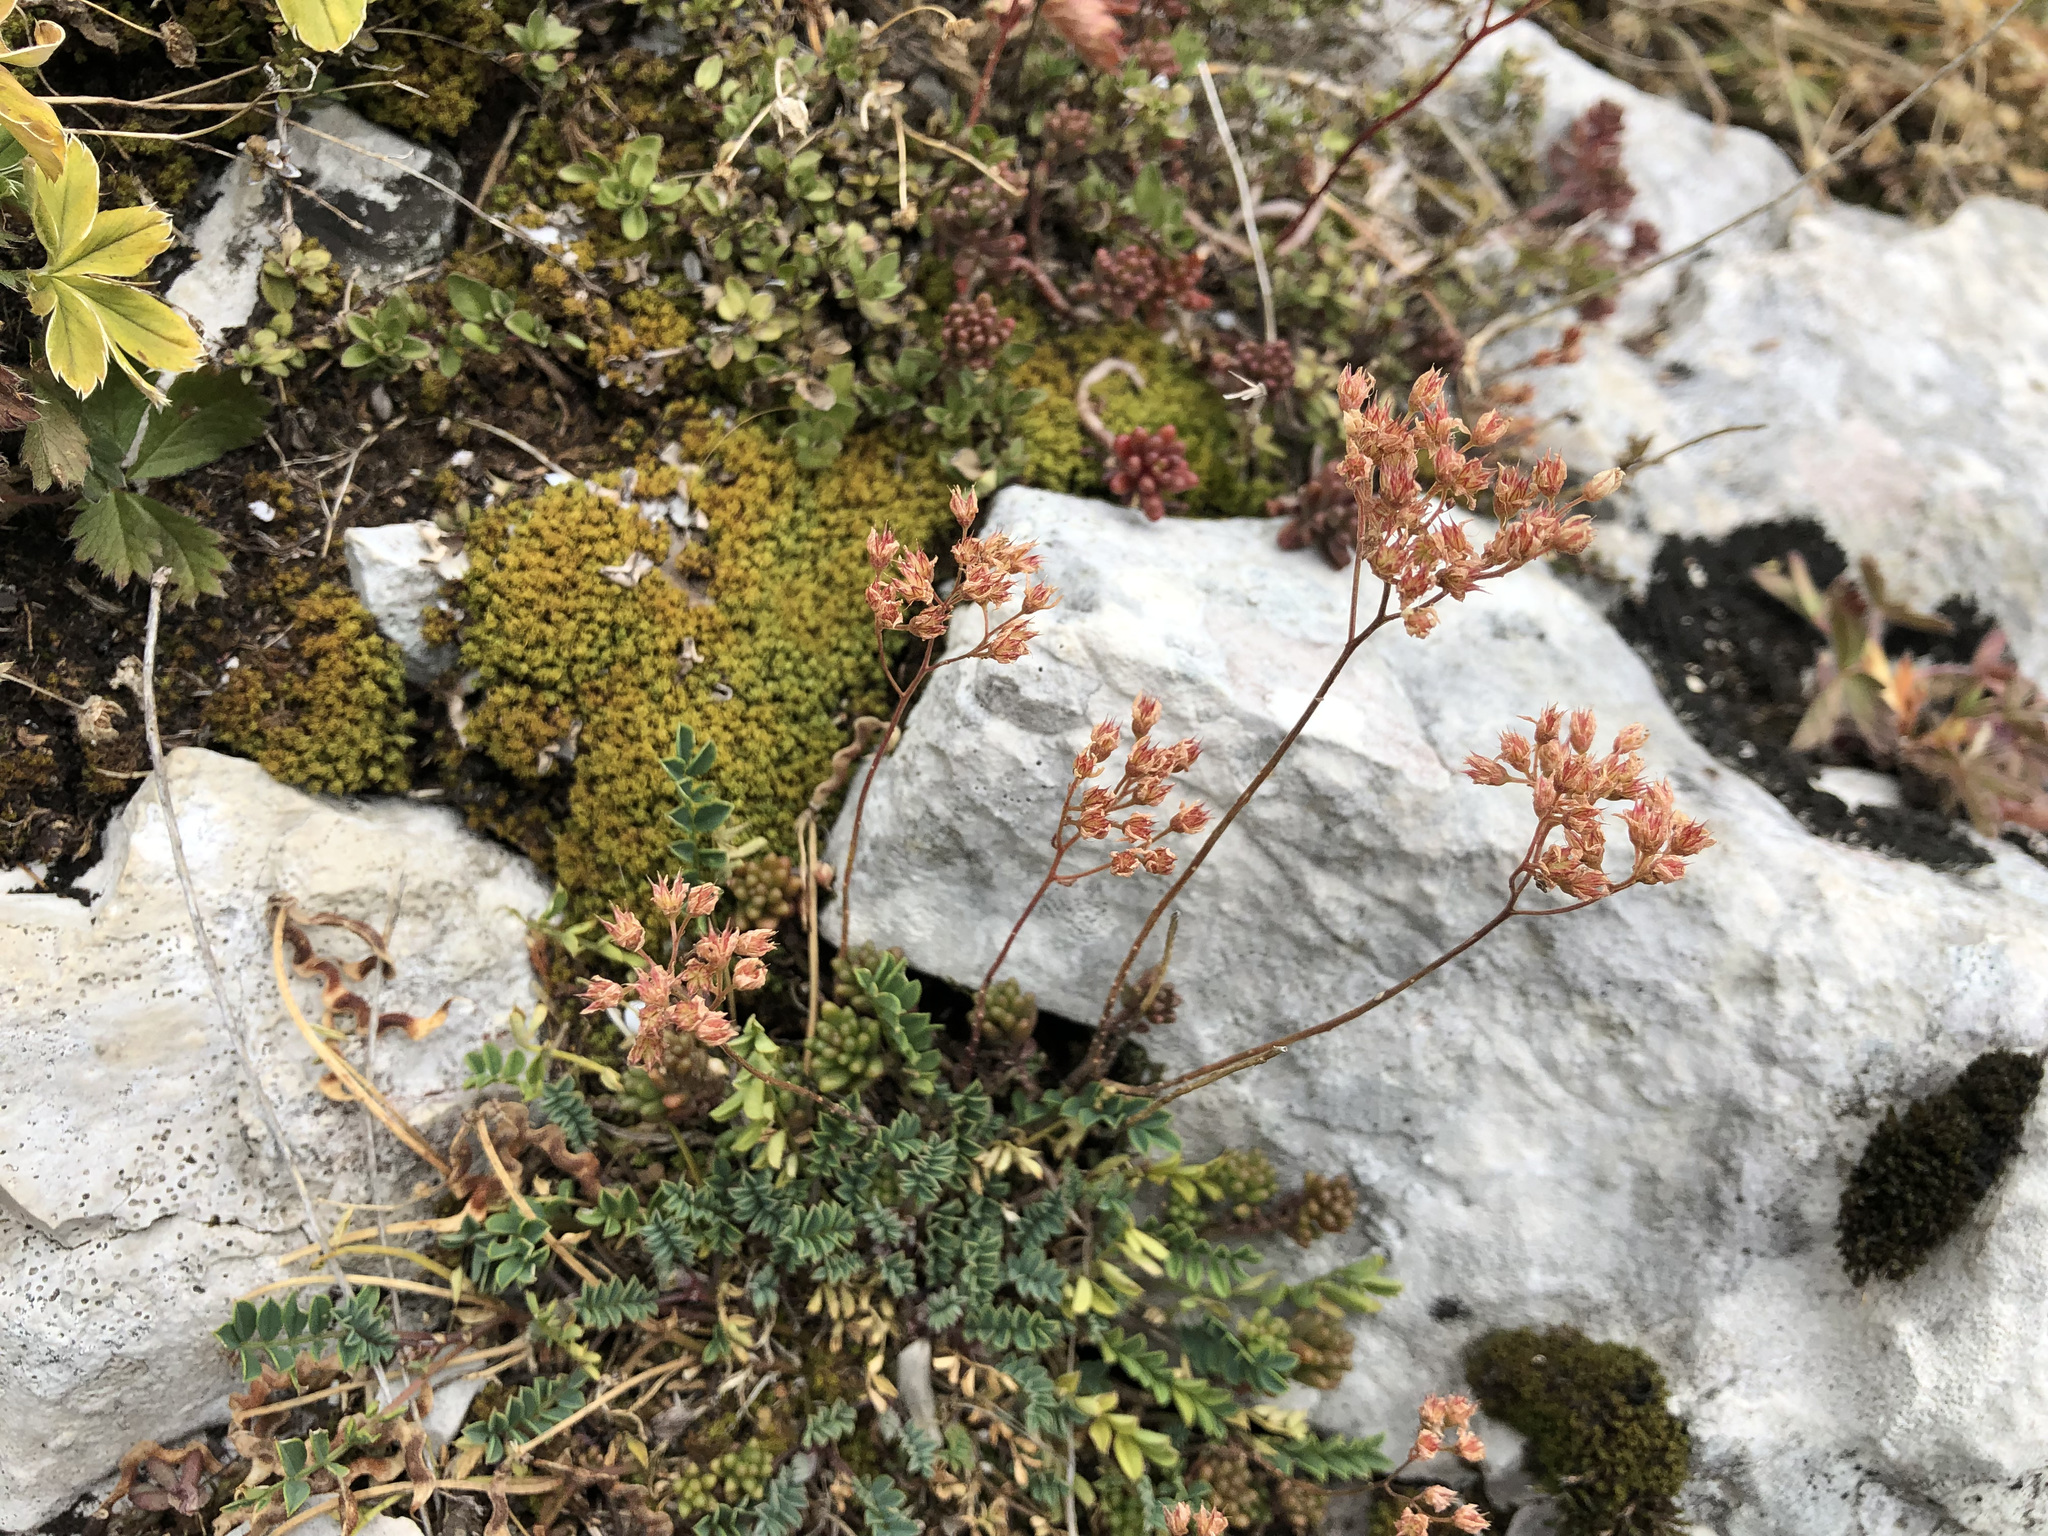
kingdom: Plantae
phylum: Tracheophyta
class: Magnoliopsida
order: Saxifragales
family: Crassulaceae
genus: Sedum
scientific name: Sedum album
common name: White stonecrop
